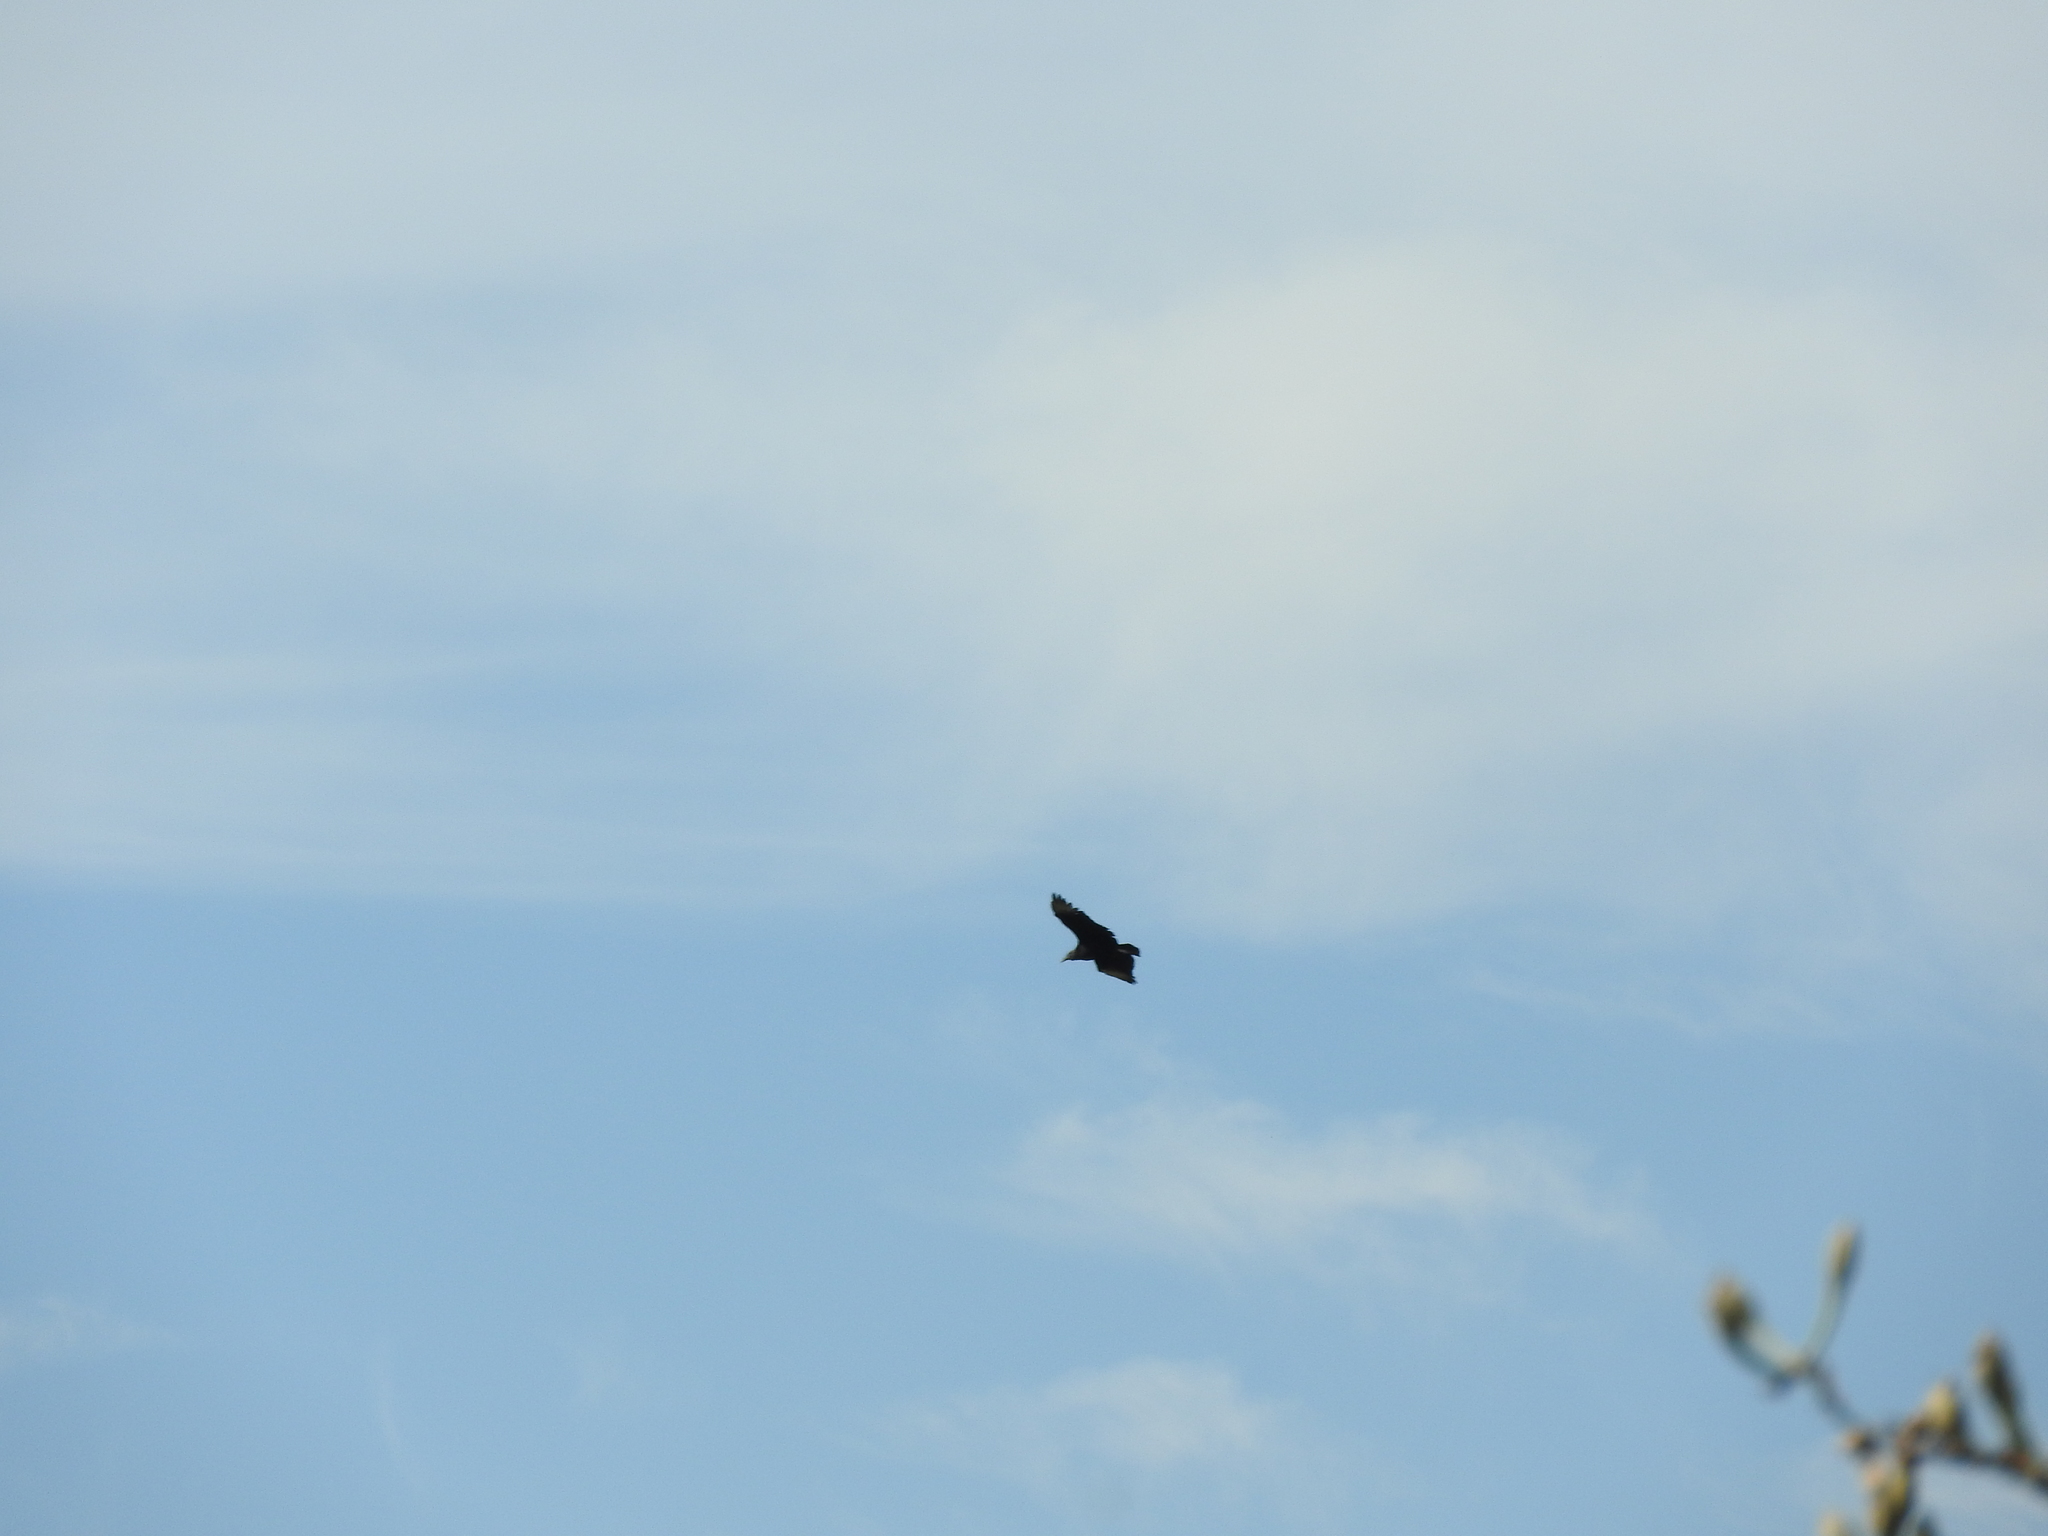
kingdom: Animalia
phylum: Chordata
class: Aves
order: Accipitriformes
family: Cathartidae
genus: Coragyps
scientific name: Coragyps atratus
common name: Black vulture
